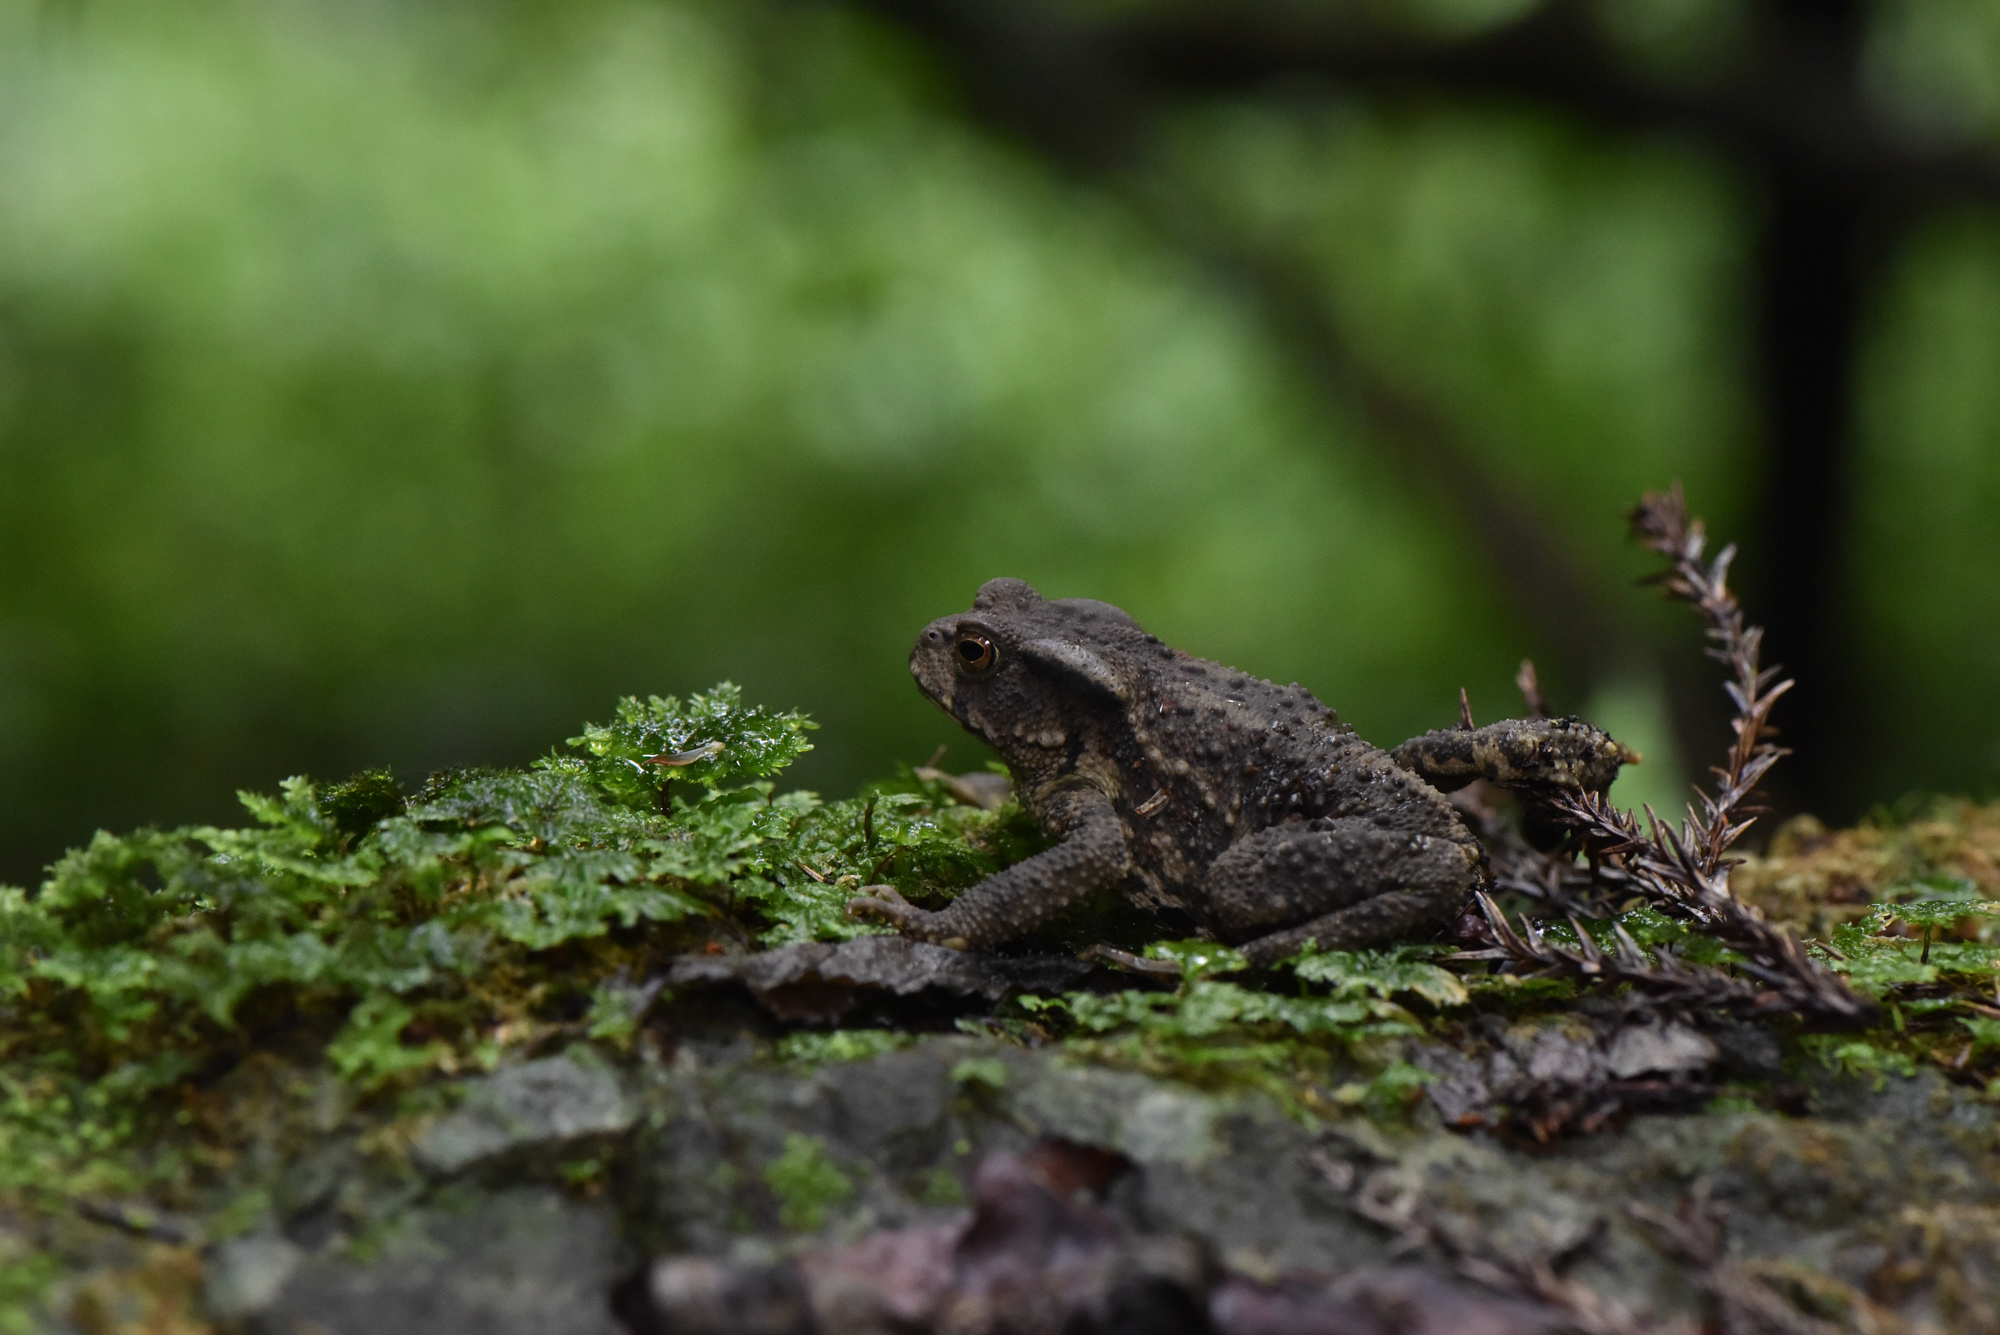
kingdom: Animalia
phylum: Chordata
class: Amphibia
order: Anura
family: Bufonidae
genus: Bufo
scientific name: Bufo bankorensis
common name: Bankor toad
